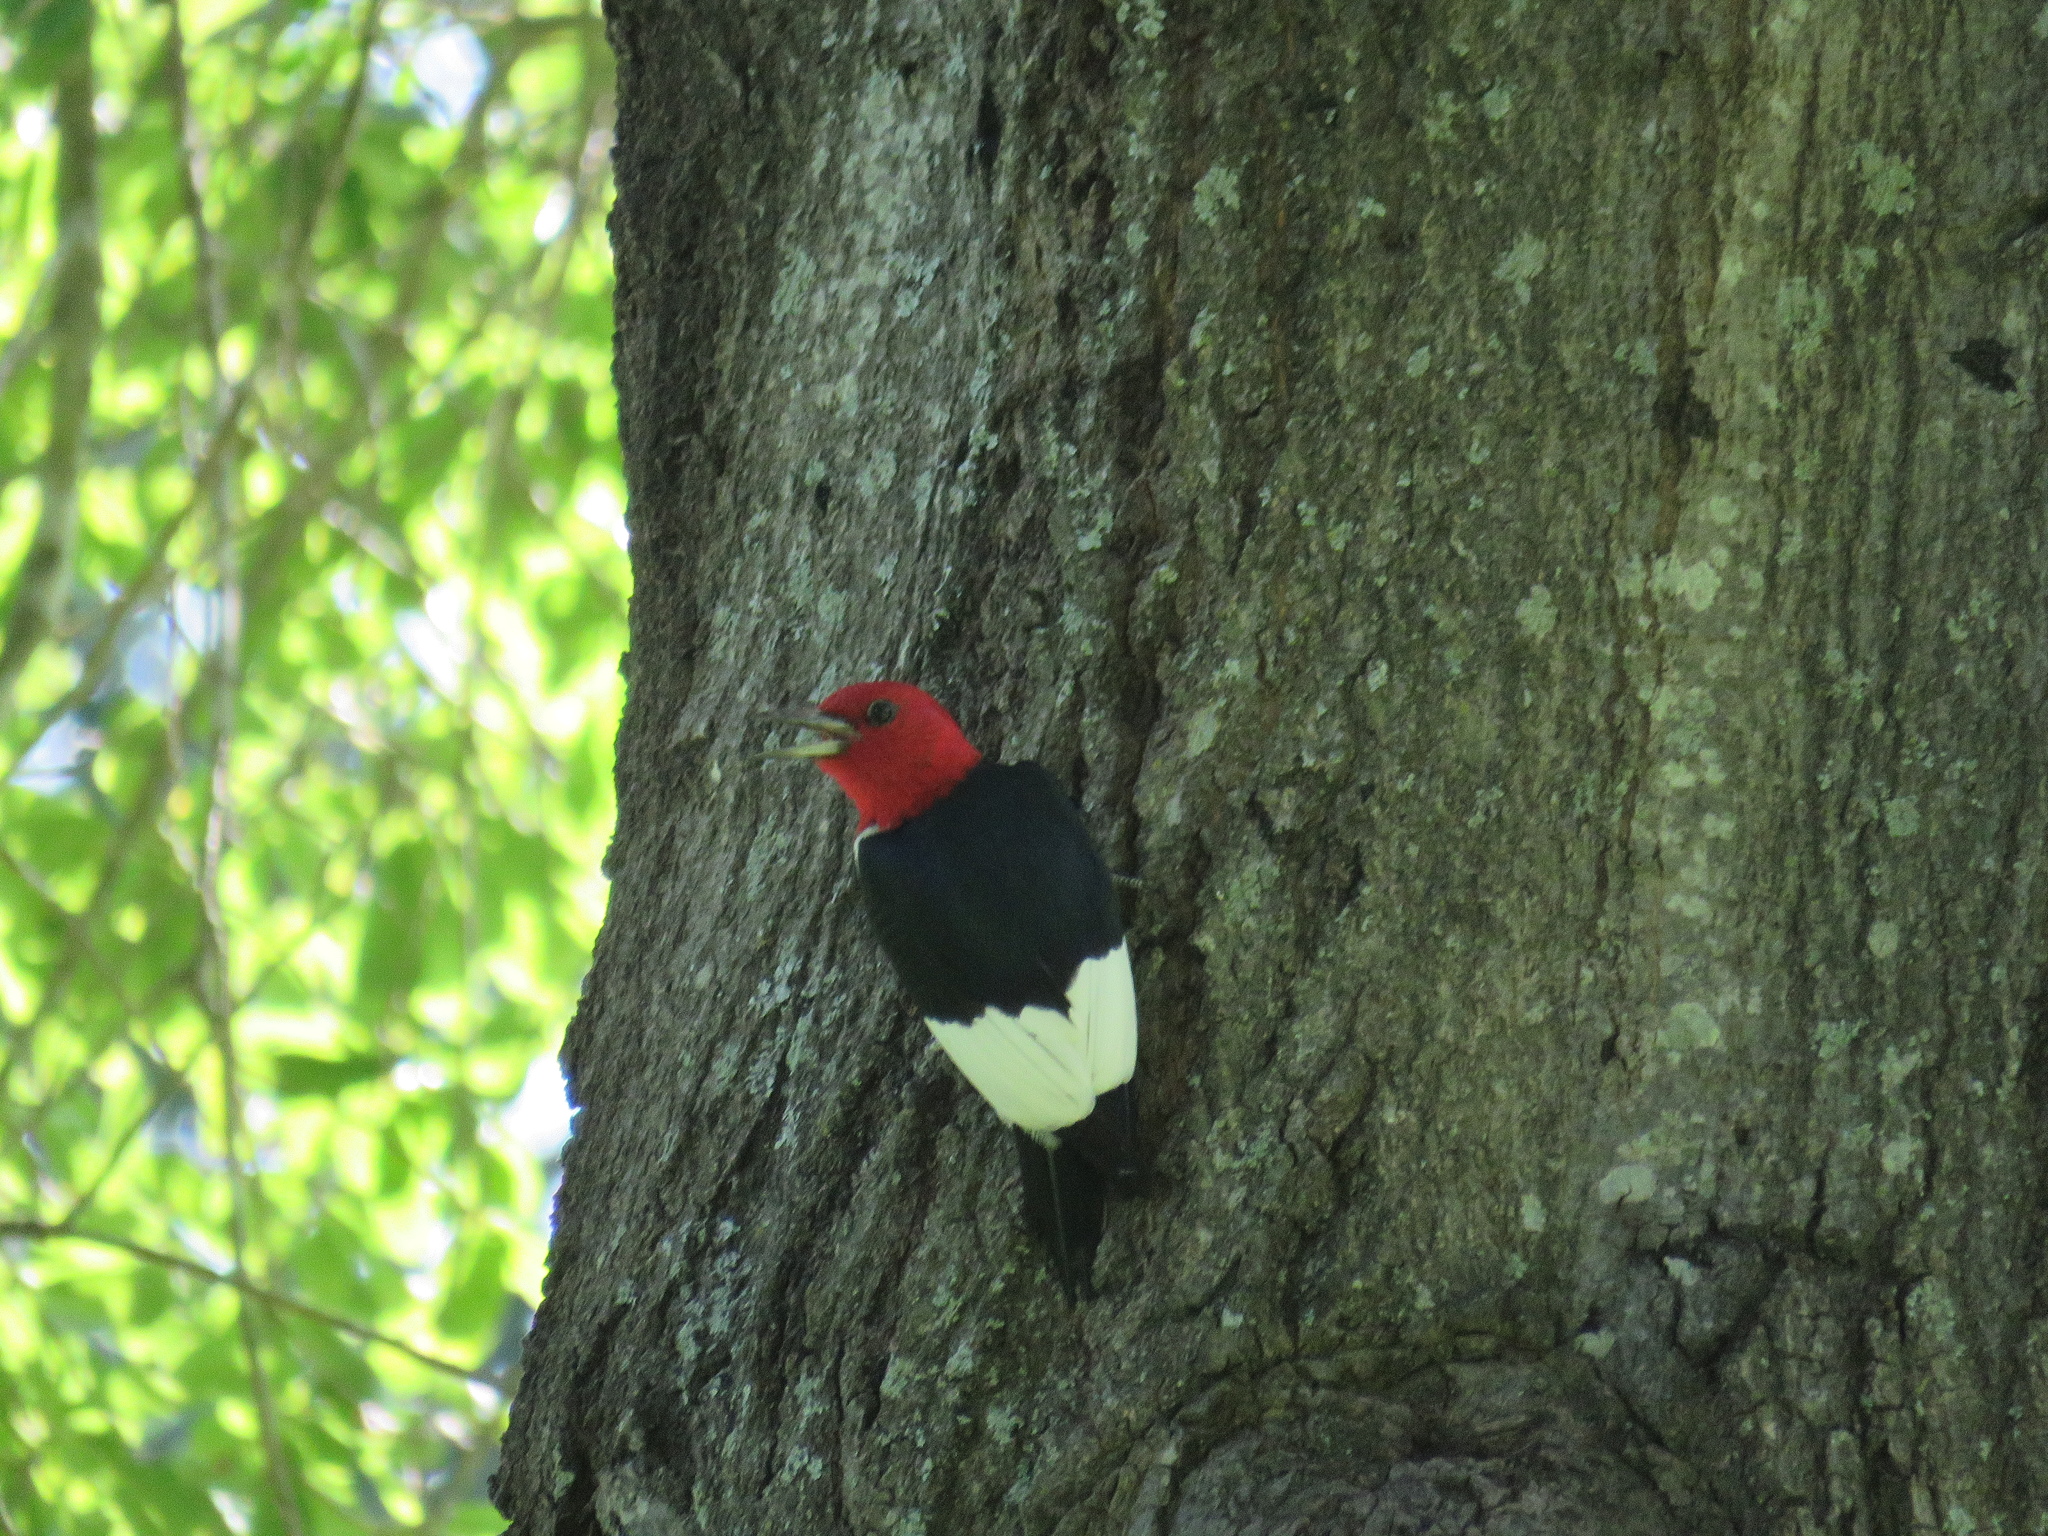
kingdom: Animalia
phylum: Chordata
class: Aves
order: Piciformes
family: Picidae
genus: Melanerpes
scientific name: Melanerpes erythrocephalus
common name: Red-headed woodpecker
